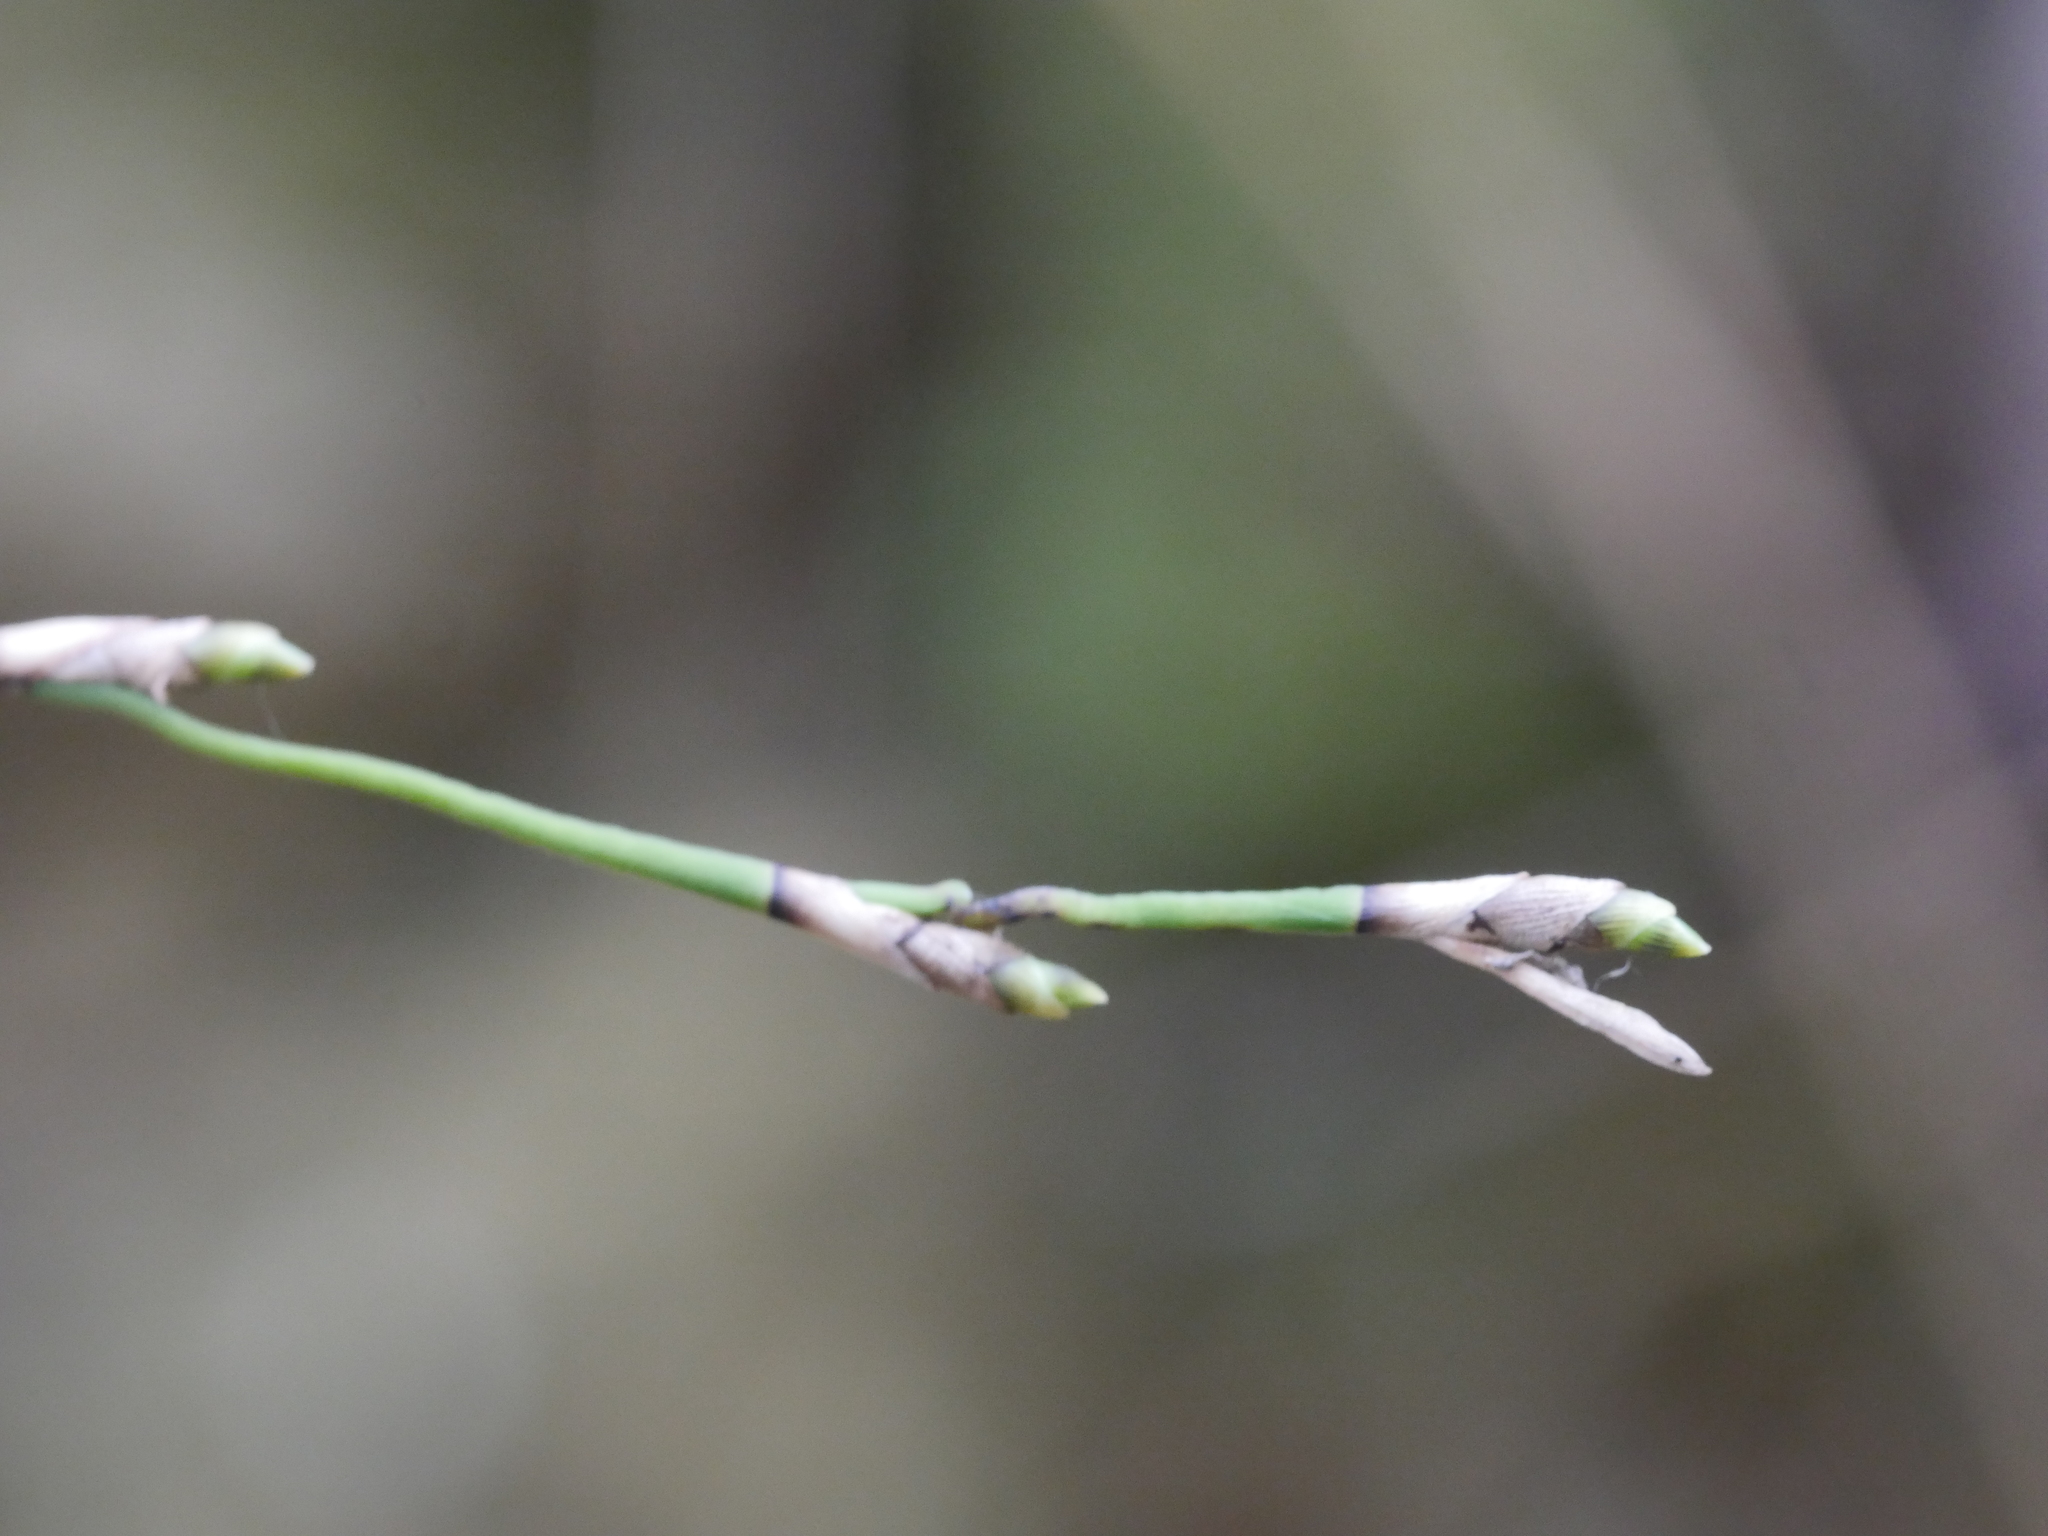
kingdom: Plantae
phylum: Tracheophyta
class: Liliopsida
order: Asparagales
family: Orchidaceae
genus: Earina
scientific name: Earina aestivalis
